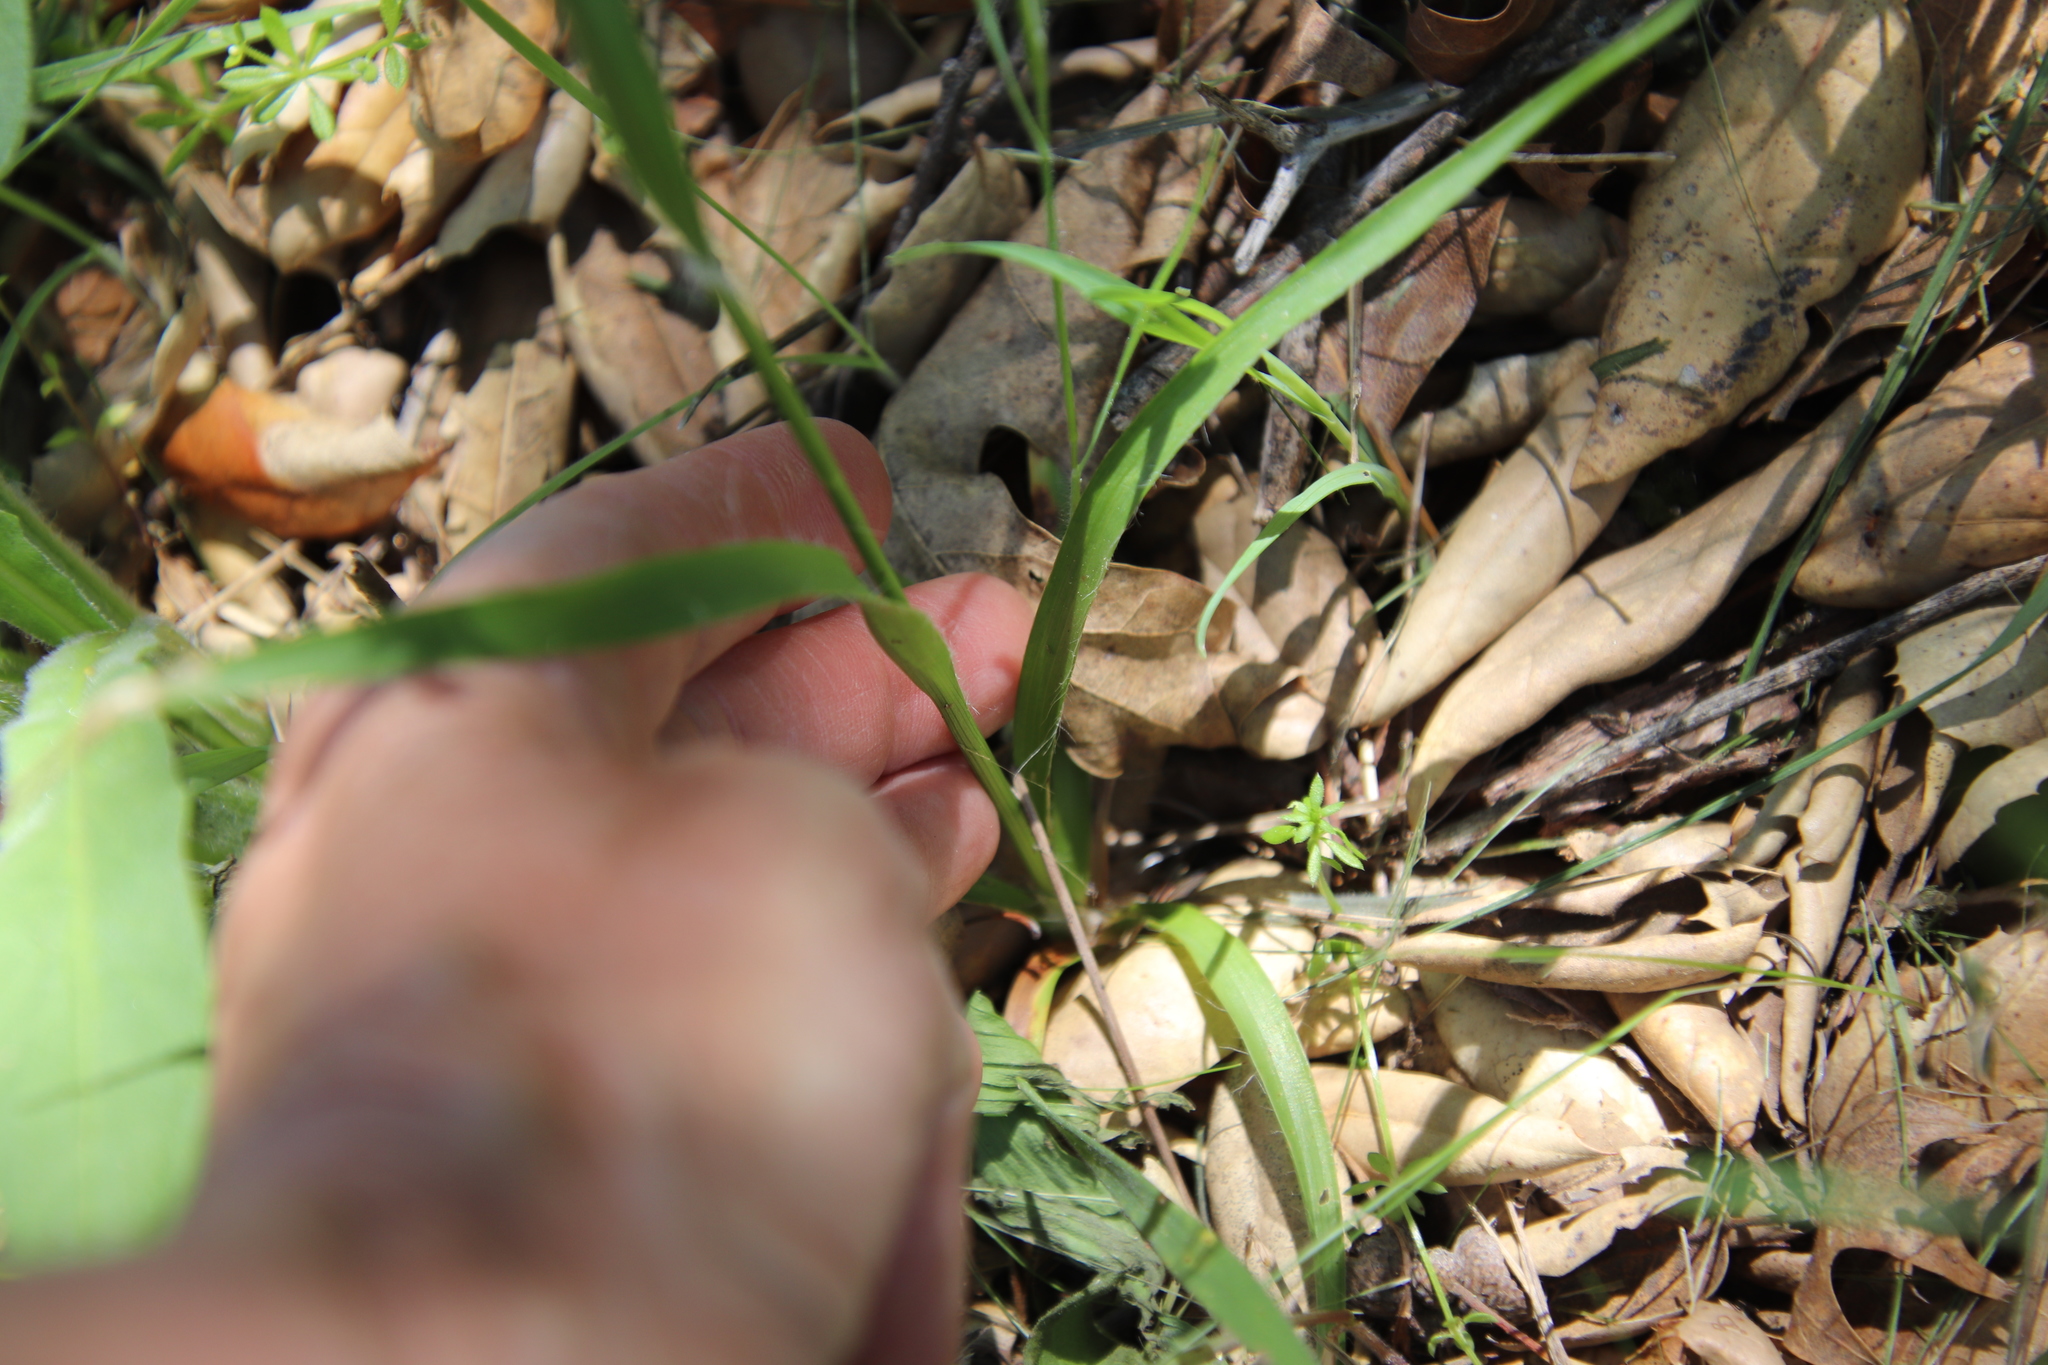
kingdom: Plantae
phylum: Tracheophyta
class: Liliopsida
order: Poales
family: Juncaceae
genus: Luzula
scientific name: Luzula comosa
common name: Pacific woodrush
